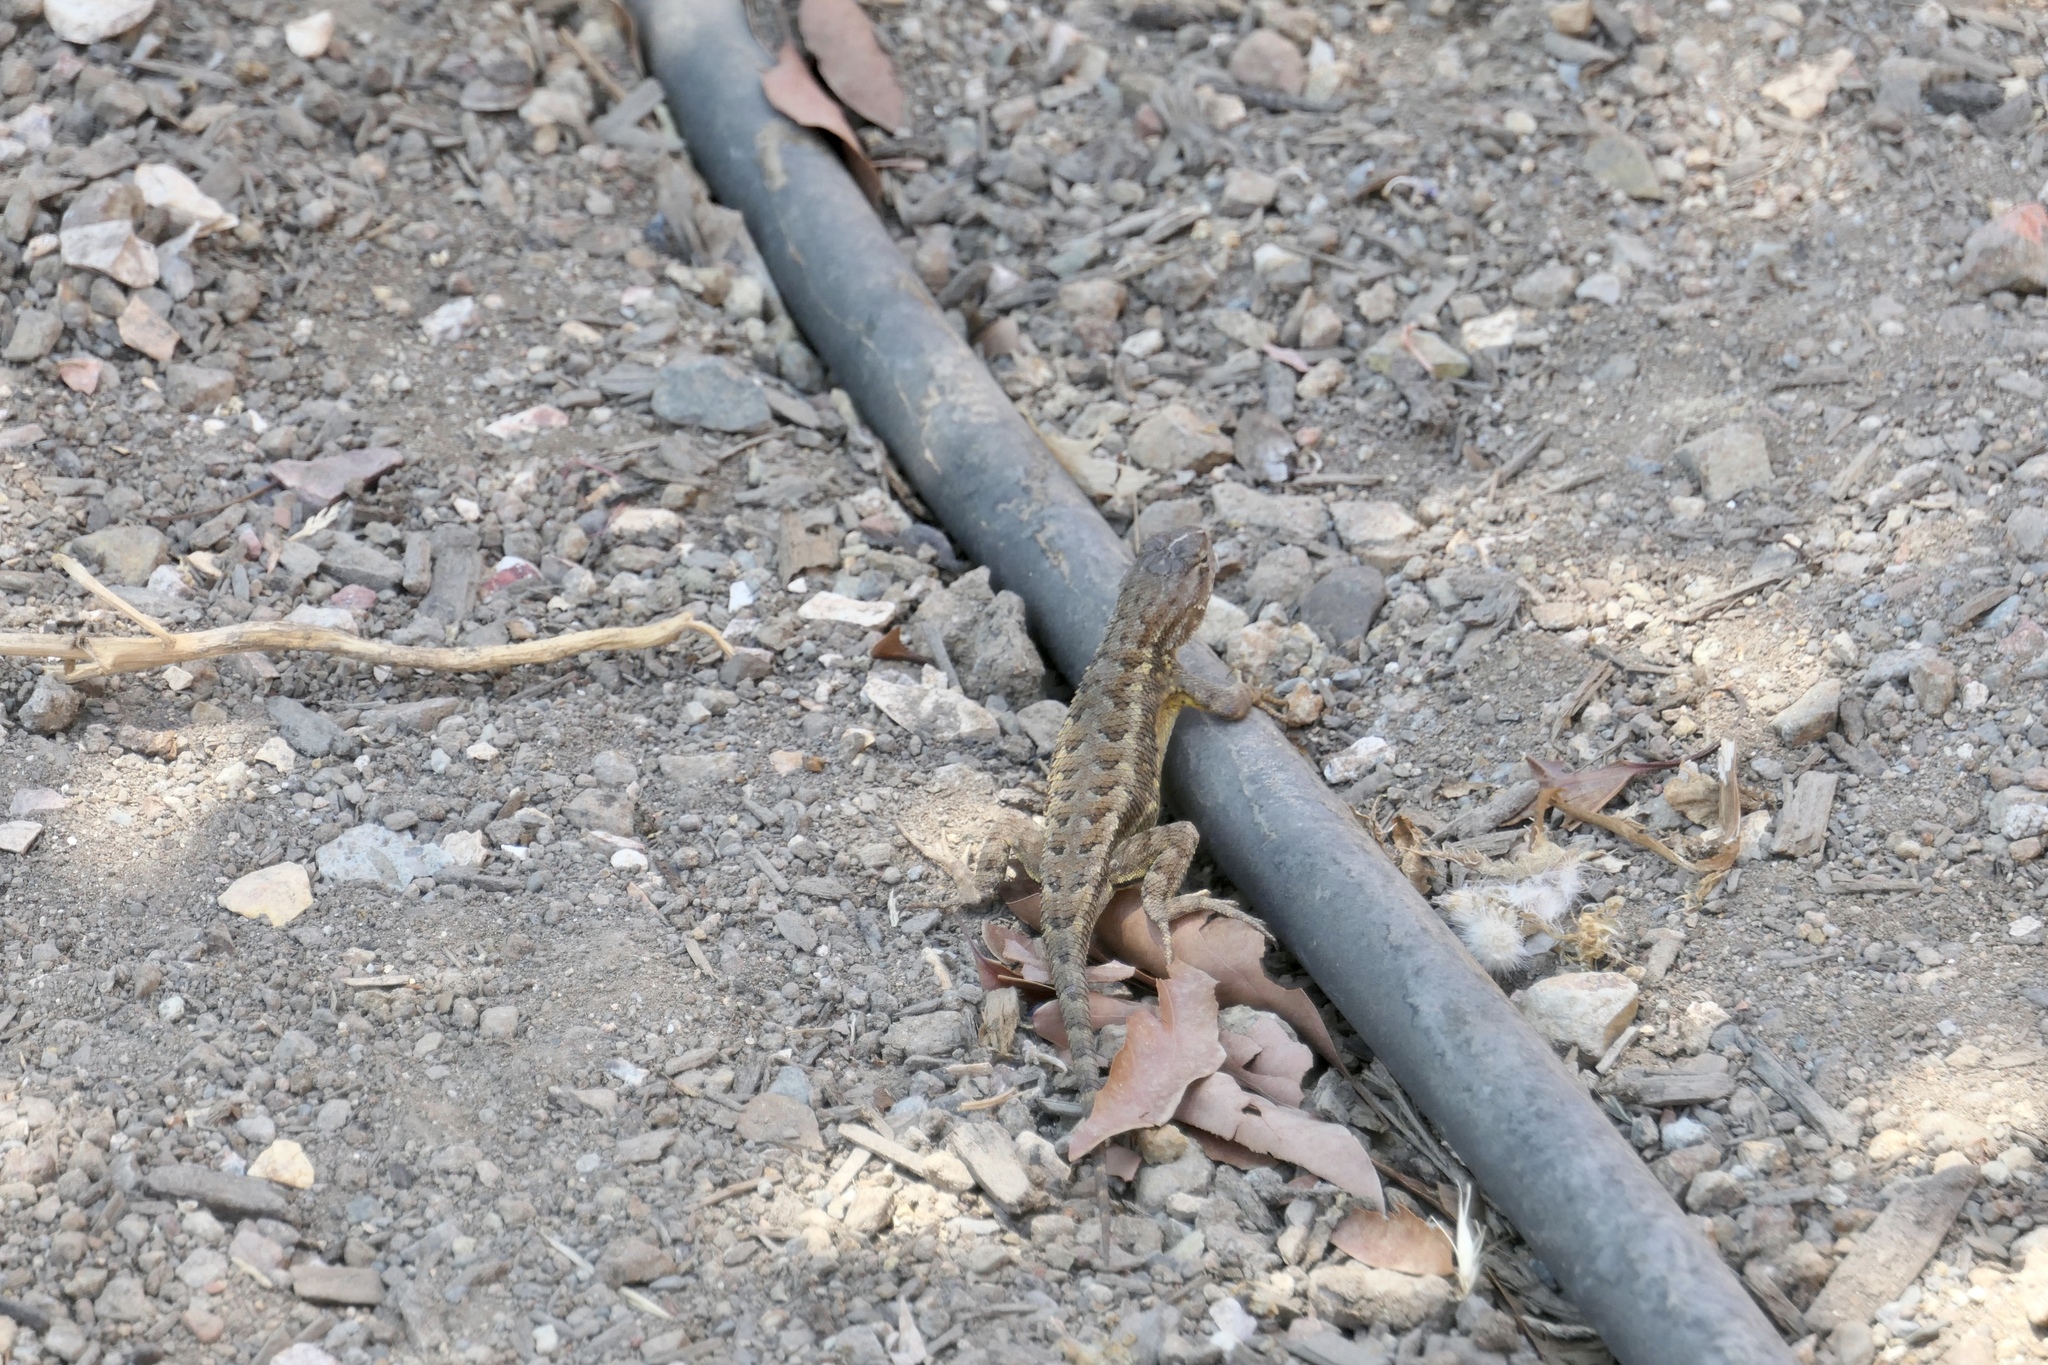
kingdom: Animalia
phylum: Chordata
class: Squamata
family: Phrynosomatidae
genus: Sceloporus
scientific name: Sceloporus occidentalis
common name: Western fence lizard
